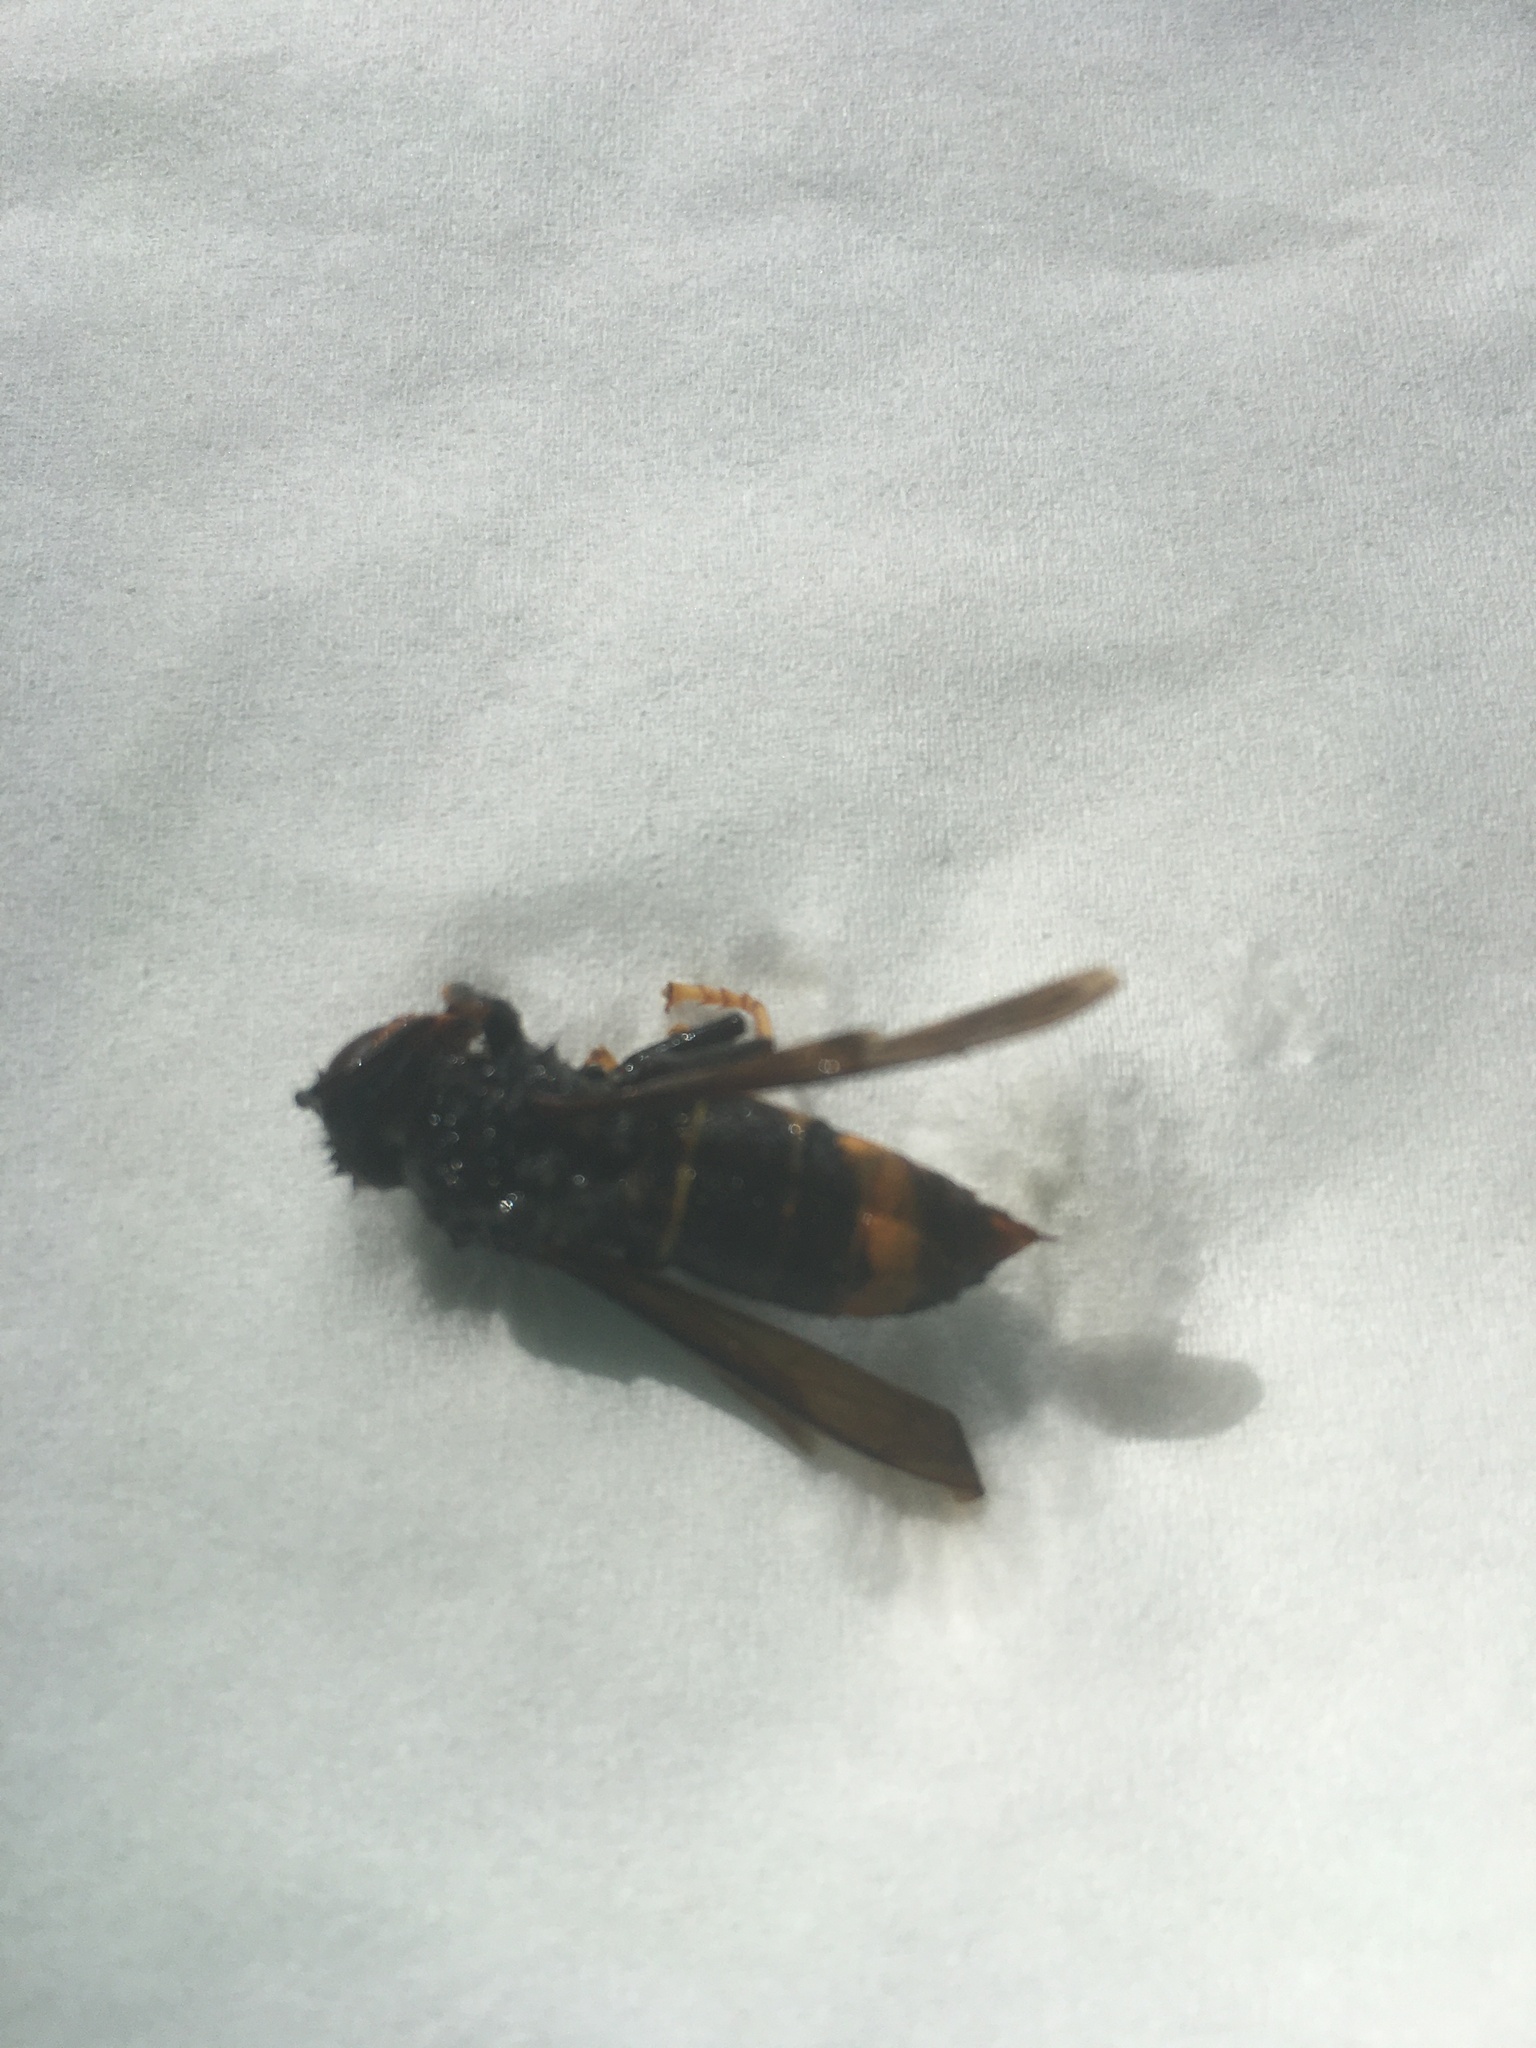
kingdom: Animalia
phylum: Arthropoda
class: Insecta
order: Hymenoptera
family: Vespidae
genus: Vespa
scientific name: Vespa velutina
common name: Asian hornet
